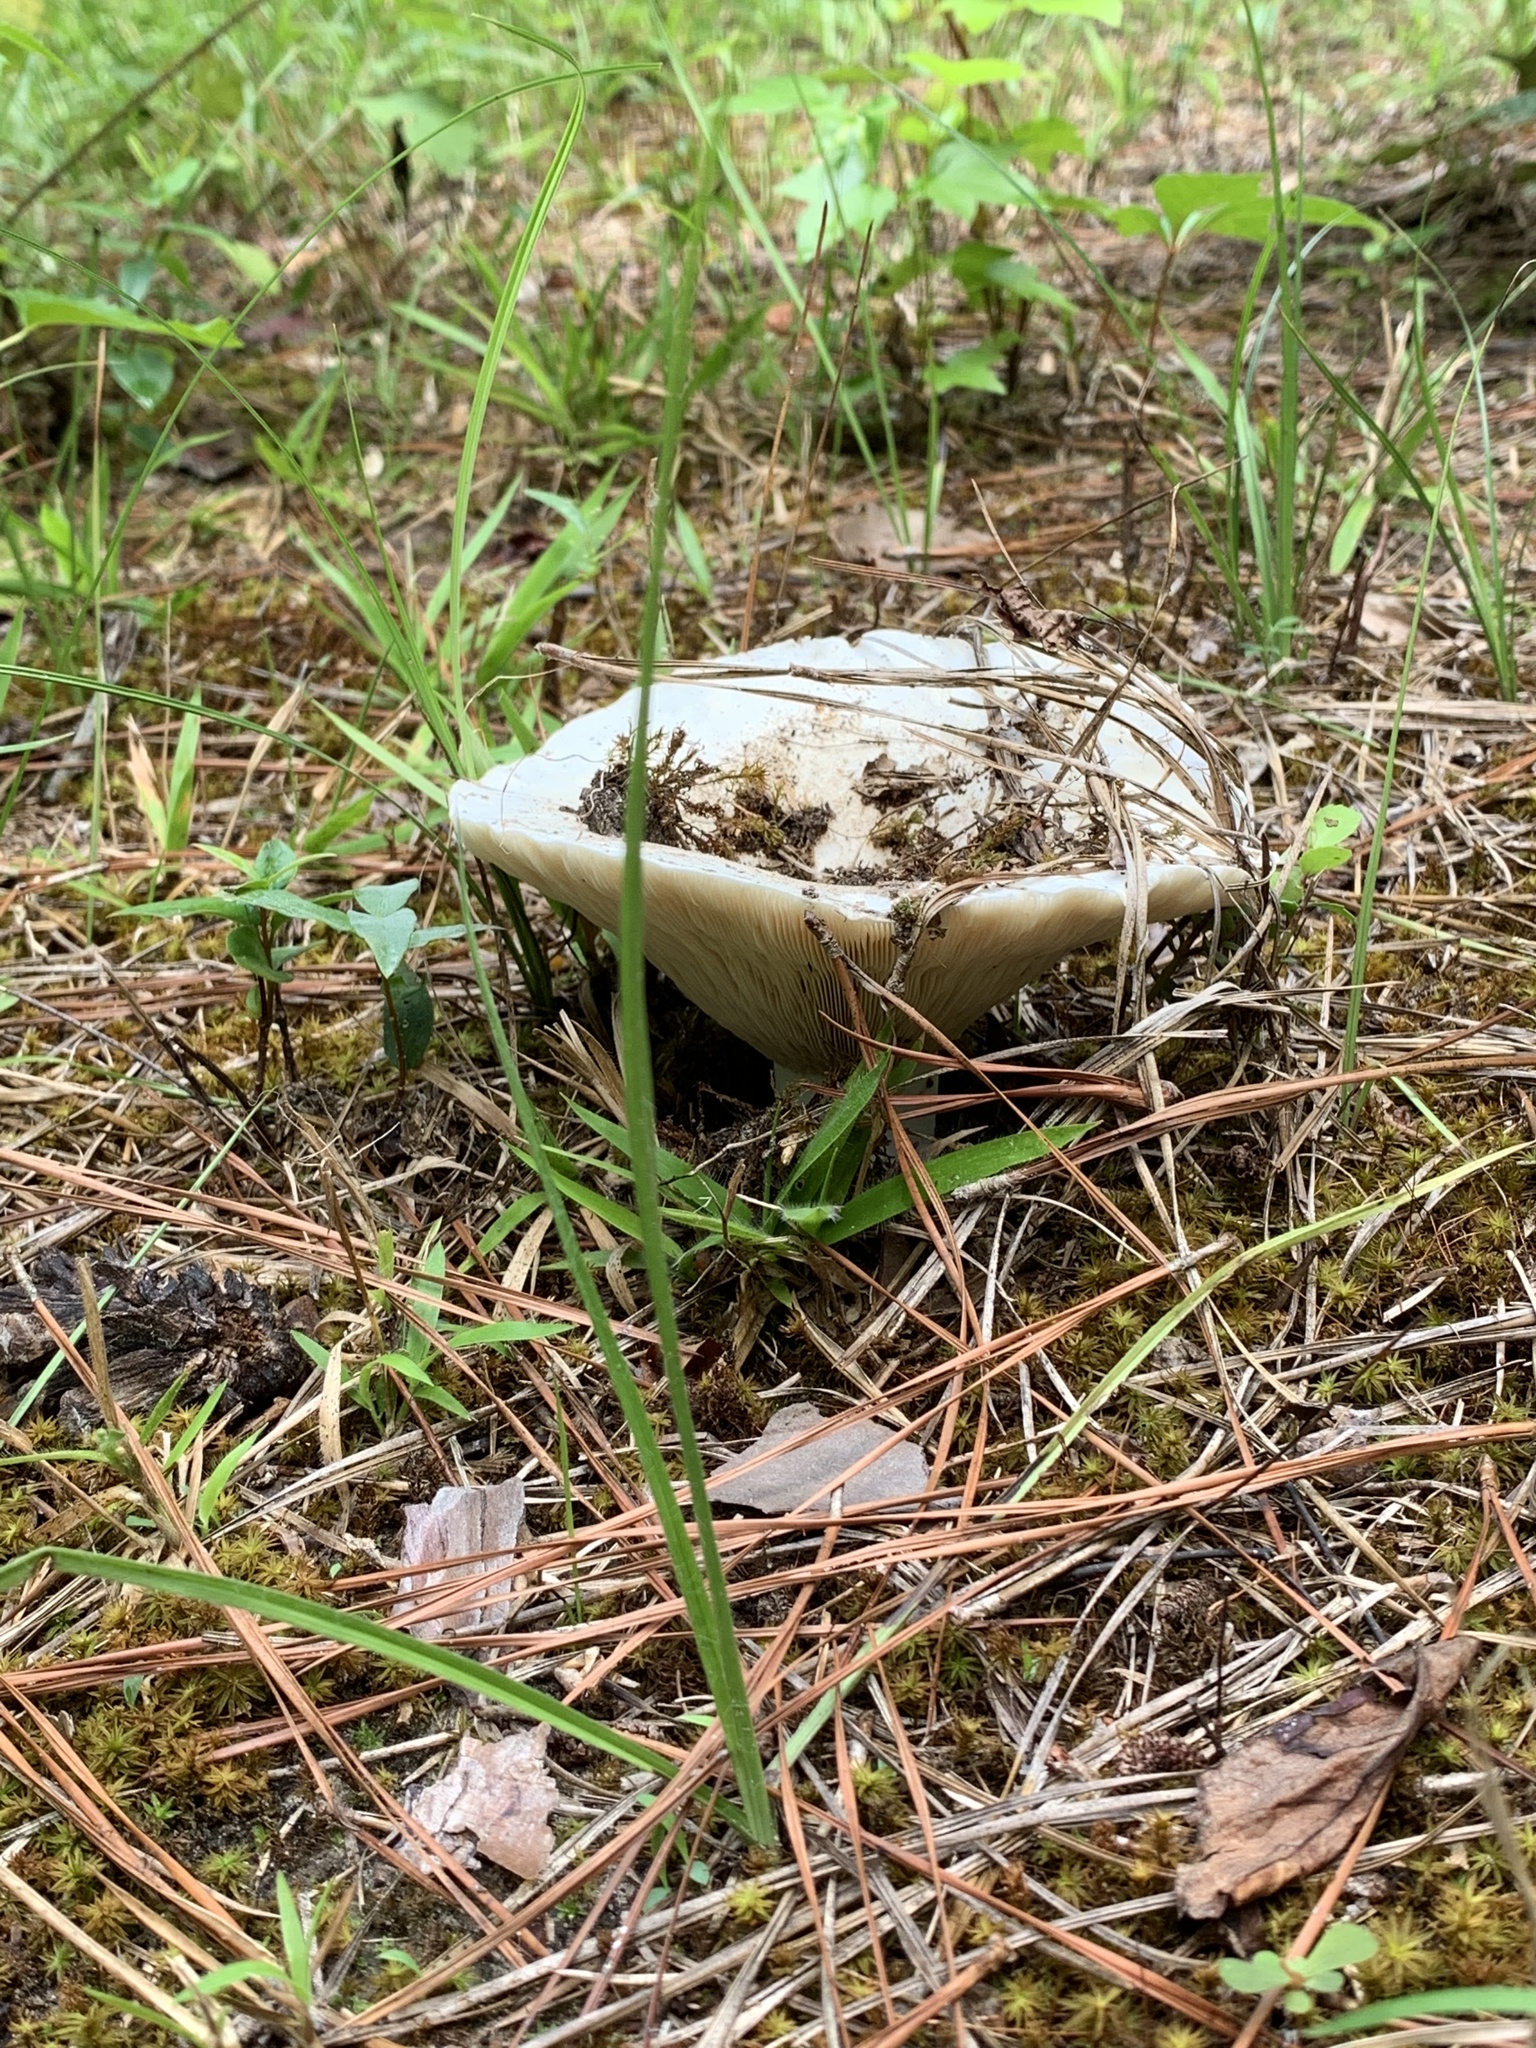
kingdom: Fungi
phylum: Basidiomycota
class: Agaricomycetes
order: Russulales
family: Russulaceae
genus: Russula
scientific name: Russula brevipes
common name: Short-stemmed russula
